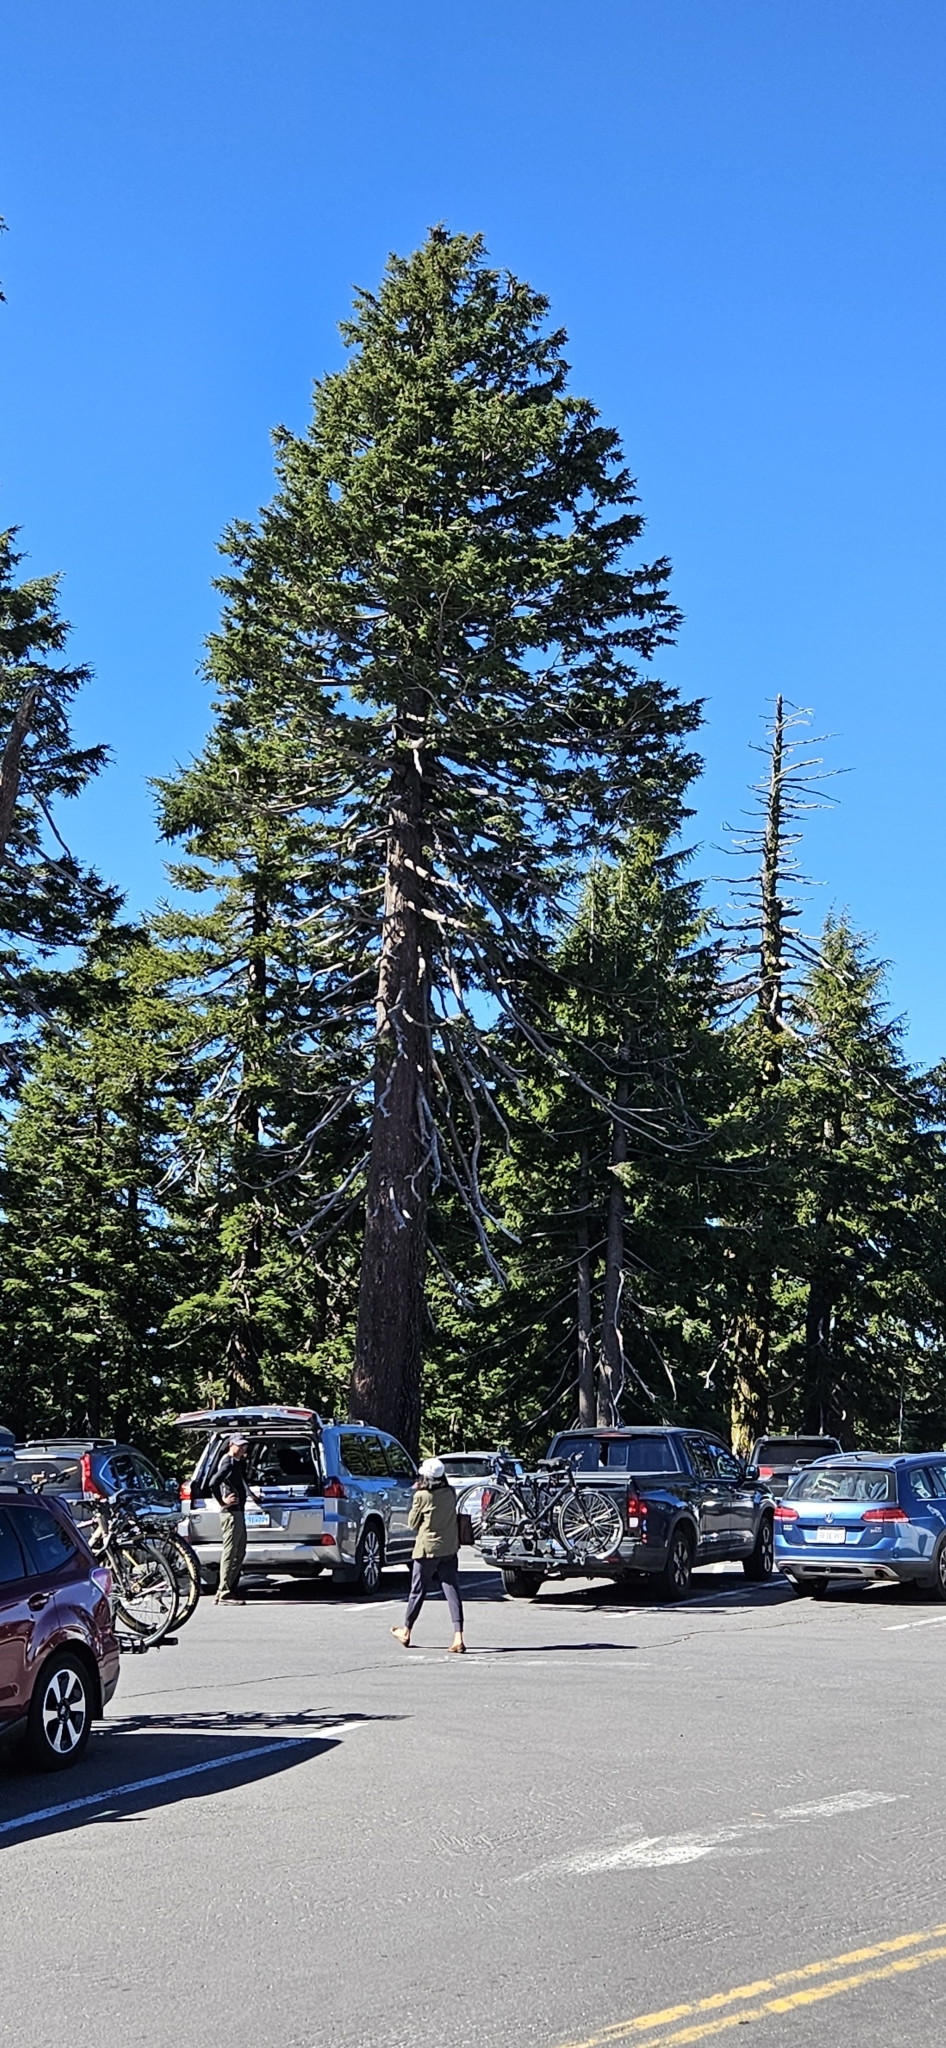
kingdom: Plantae
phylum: Tracheophyta
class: Pinopsida
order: Pinales
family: Pinaceae
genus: Tsuga
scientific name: Tsuga mertensiana
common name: Mountain hemlock
